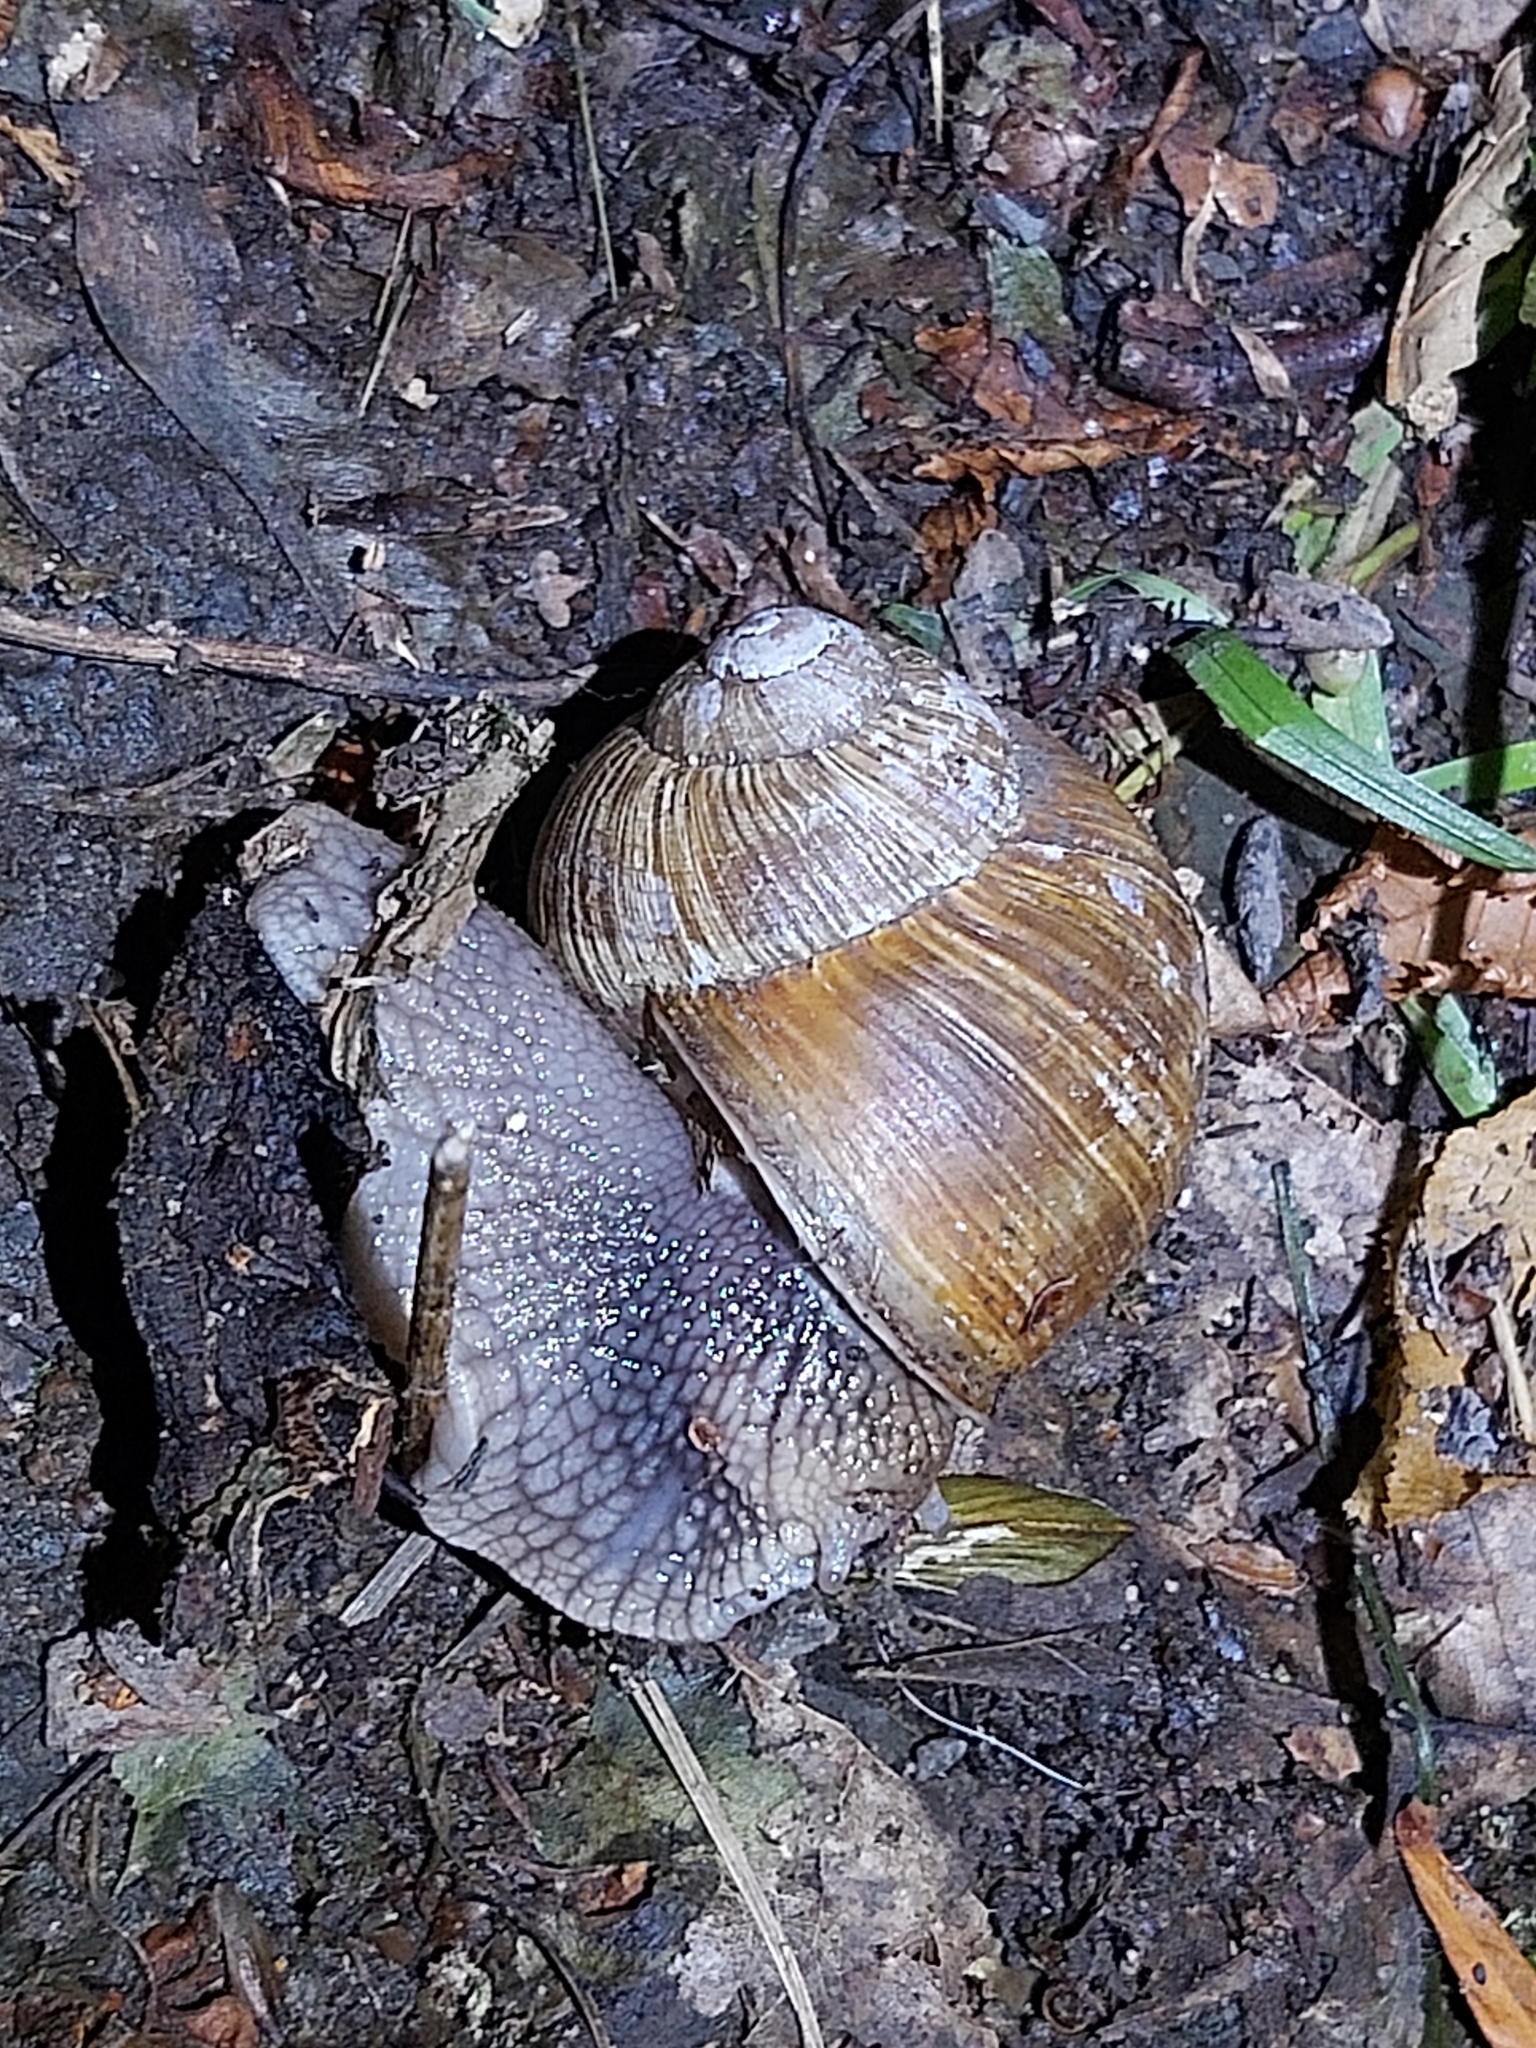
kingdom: Animalia
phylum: Mollusca
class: Gastropoda
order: Stylommatophora
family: Helicidae
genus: Helix
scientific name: Helix pomatia
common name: Roman snail
